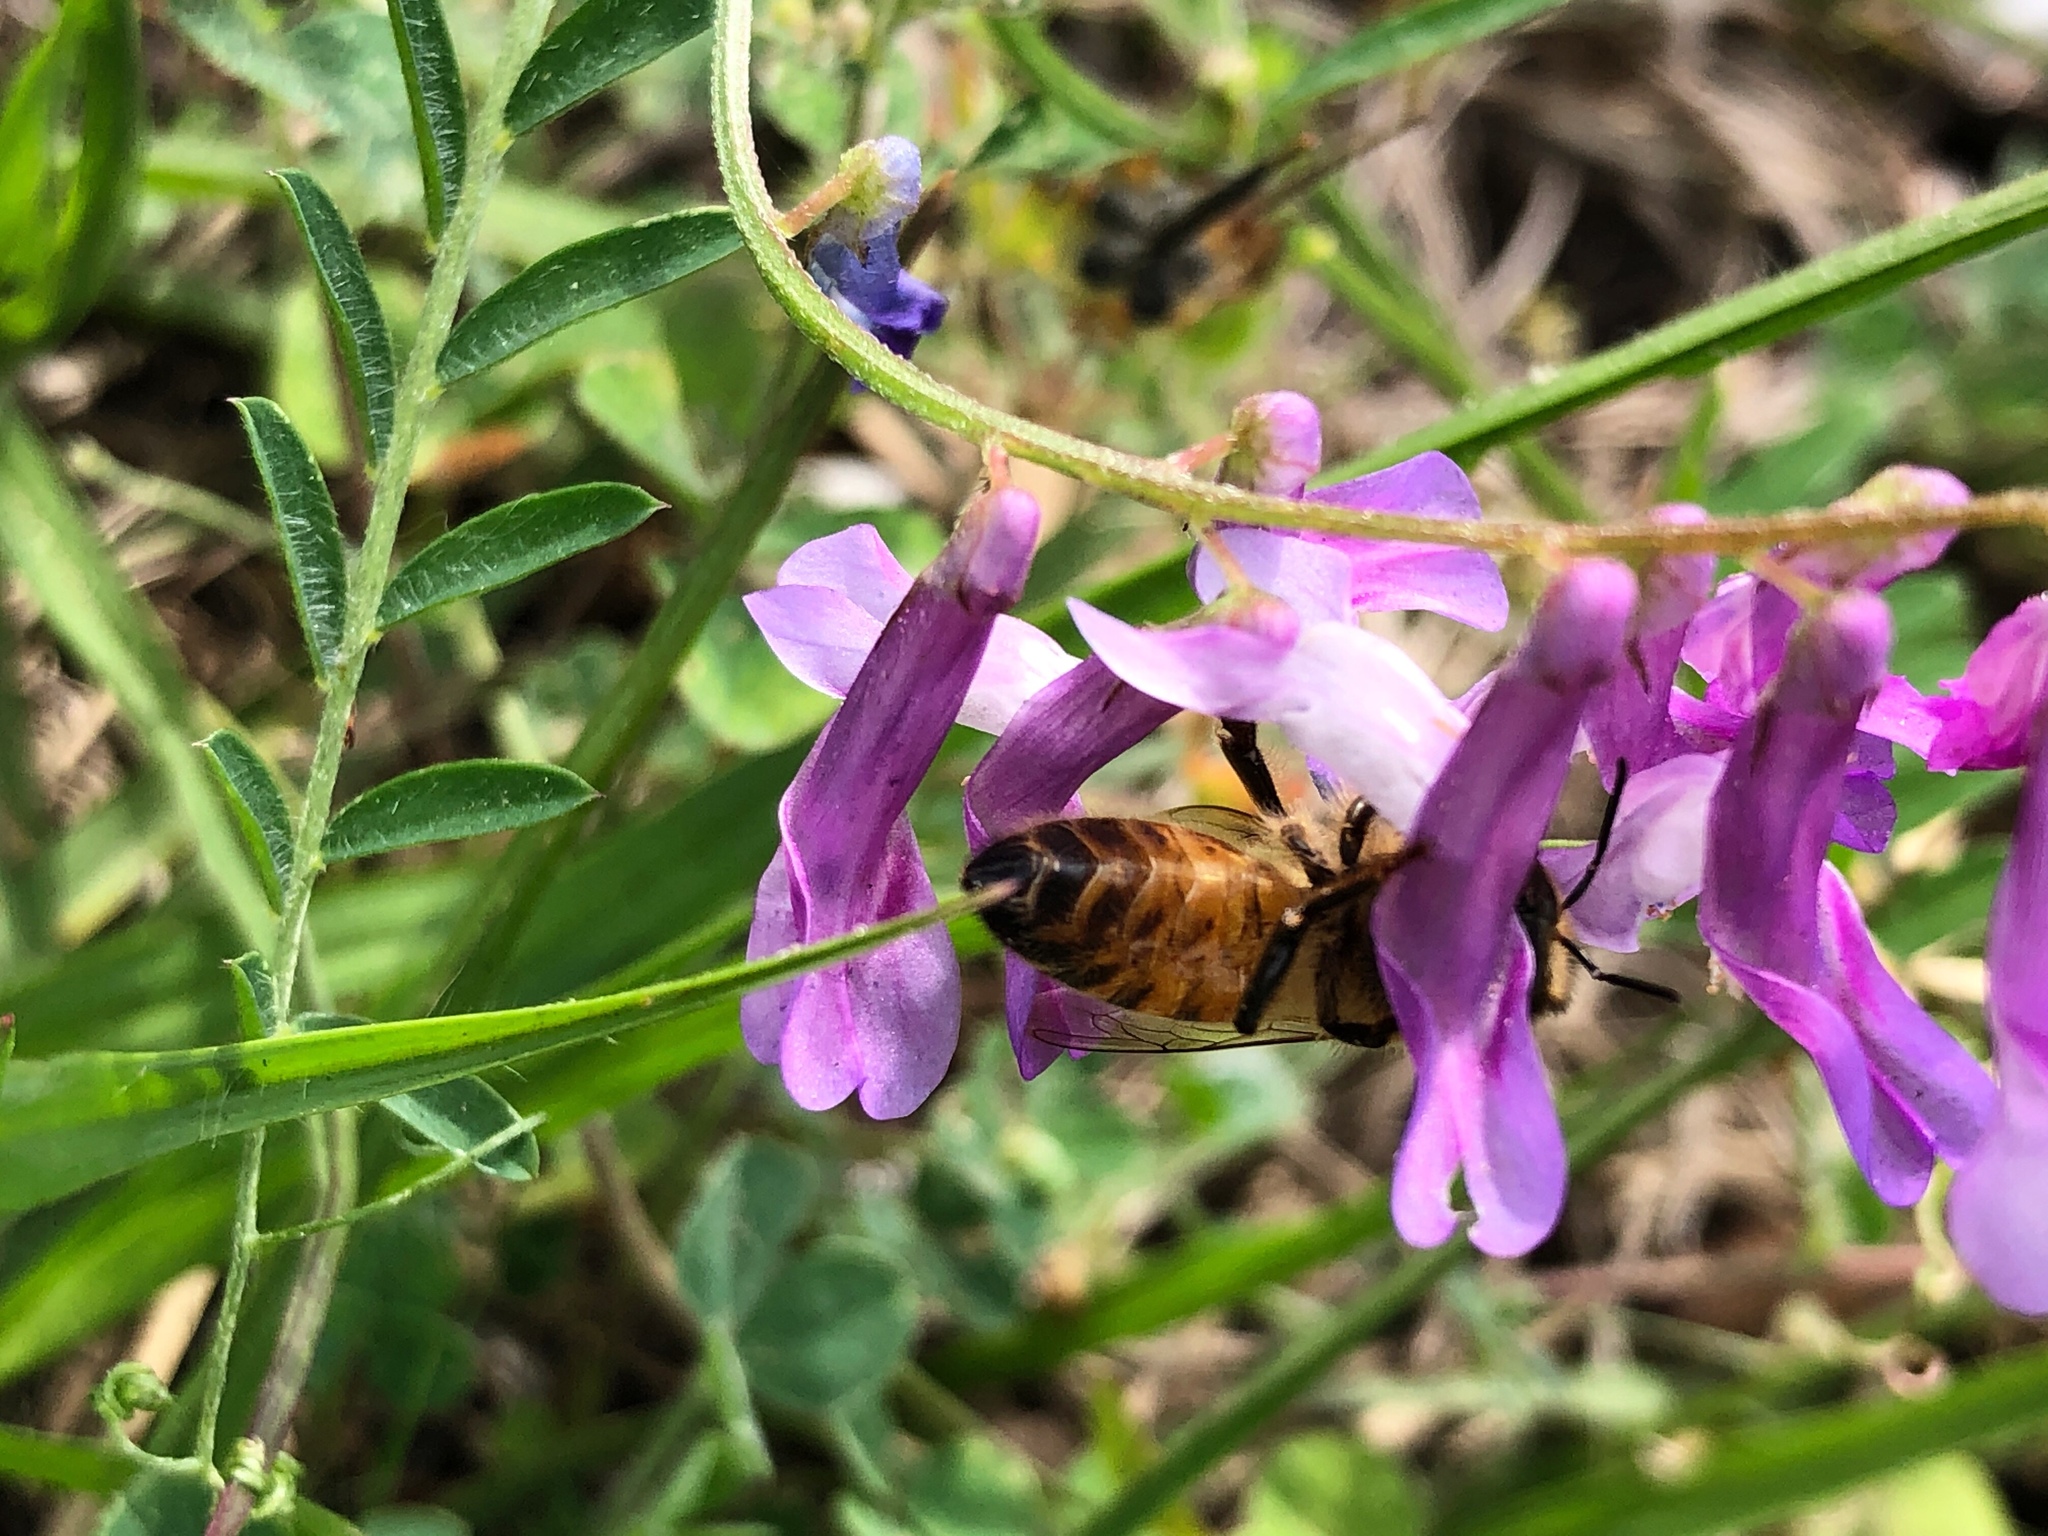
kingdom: Animalia
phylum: Arthropoda
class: Insecta
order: Hymenoptera
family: Apidae
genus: Apis
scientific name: Apis mellifera
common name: Honey bee
